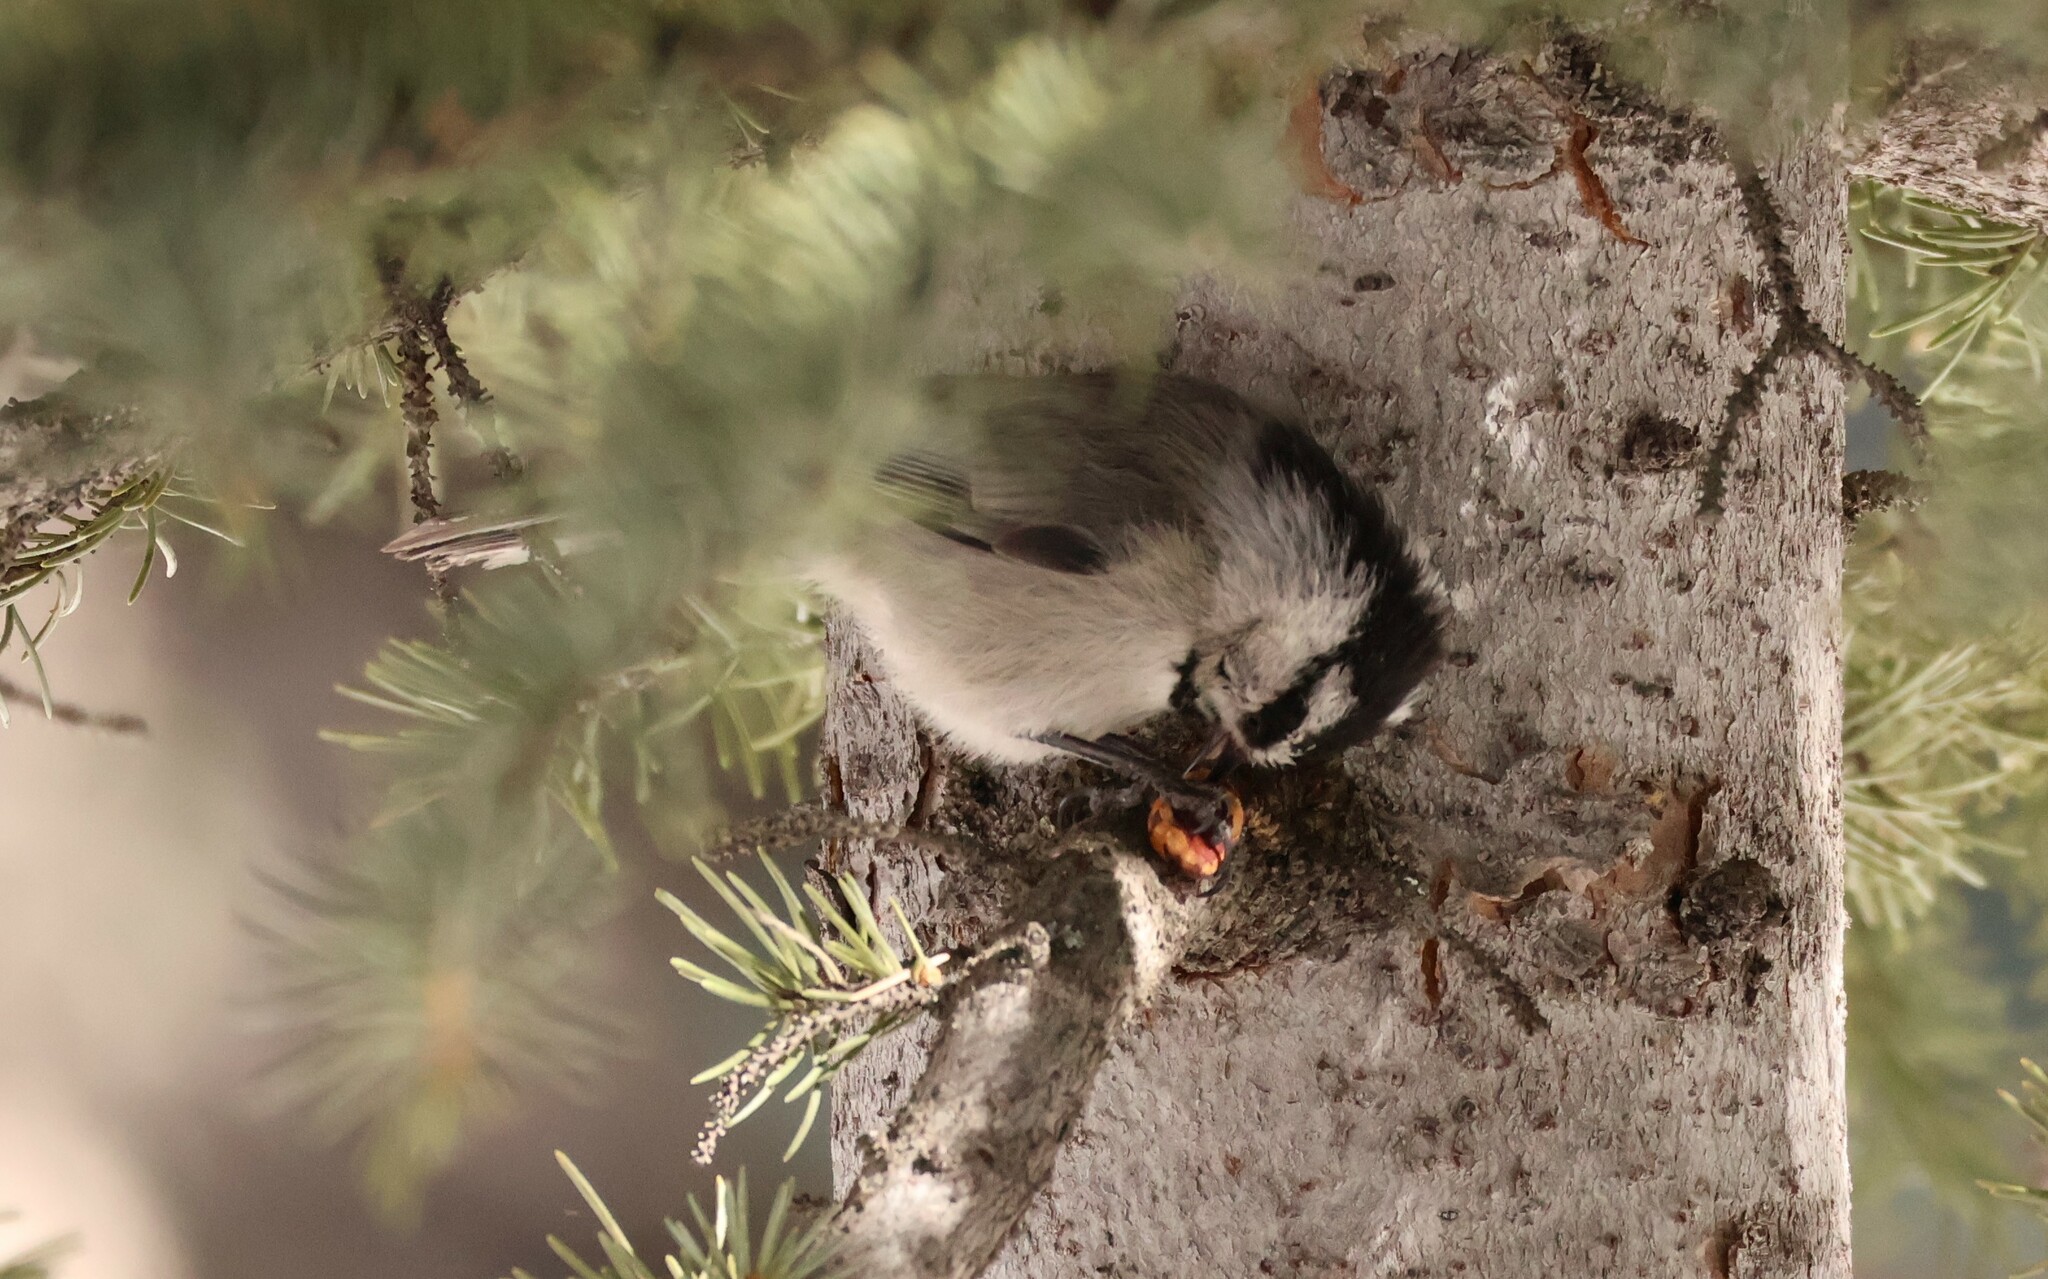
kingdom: Animalia
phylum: Chordata
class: Aves
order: Passeriformes
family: Paridae
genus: Poecile
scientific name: Poecile gambeli
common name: Mountain chickadee
